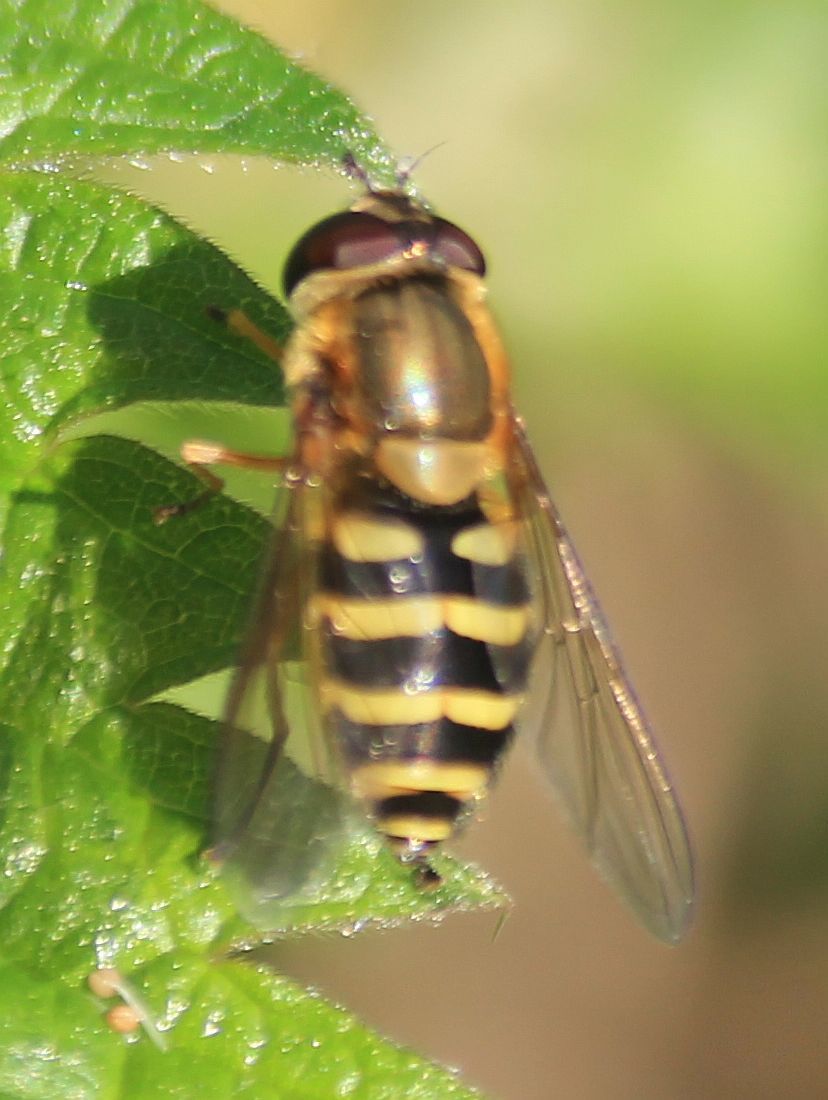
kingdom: Animalia
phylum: Arthropoda
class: Insecta
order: Diptera
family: Syrphidae
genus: Syrphus
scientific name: Syrphus
